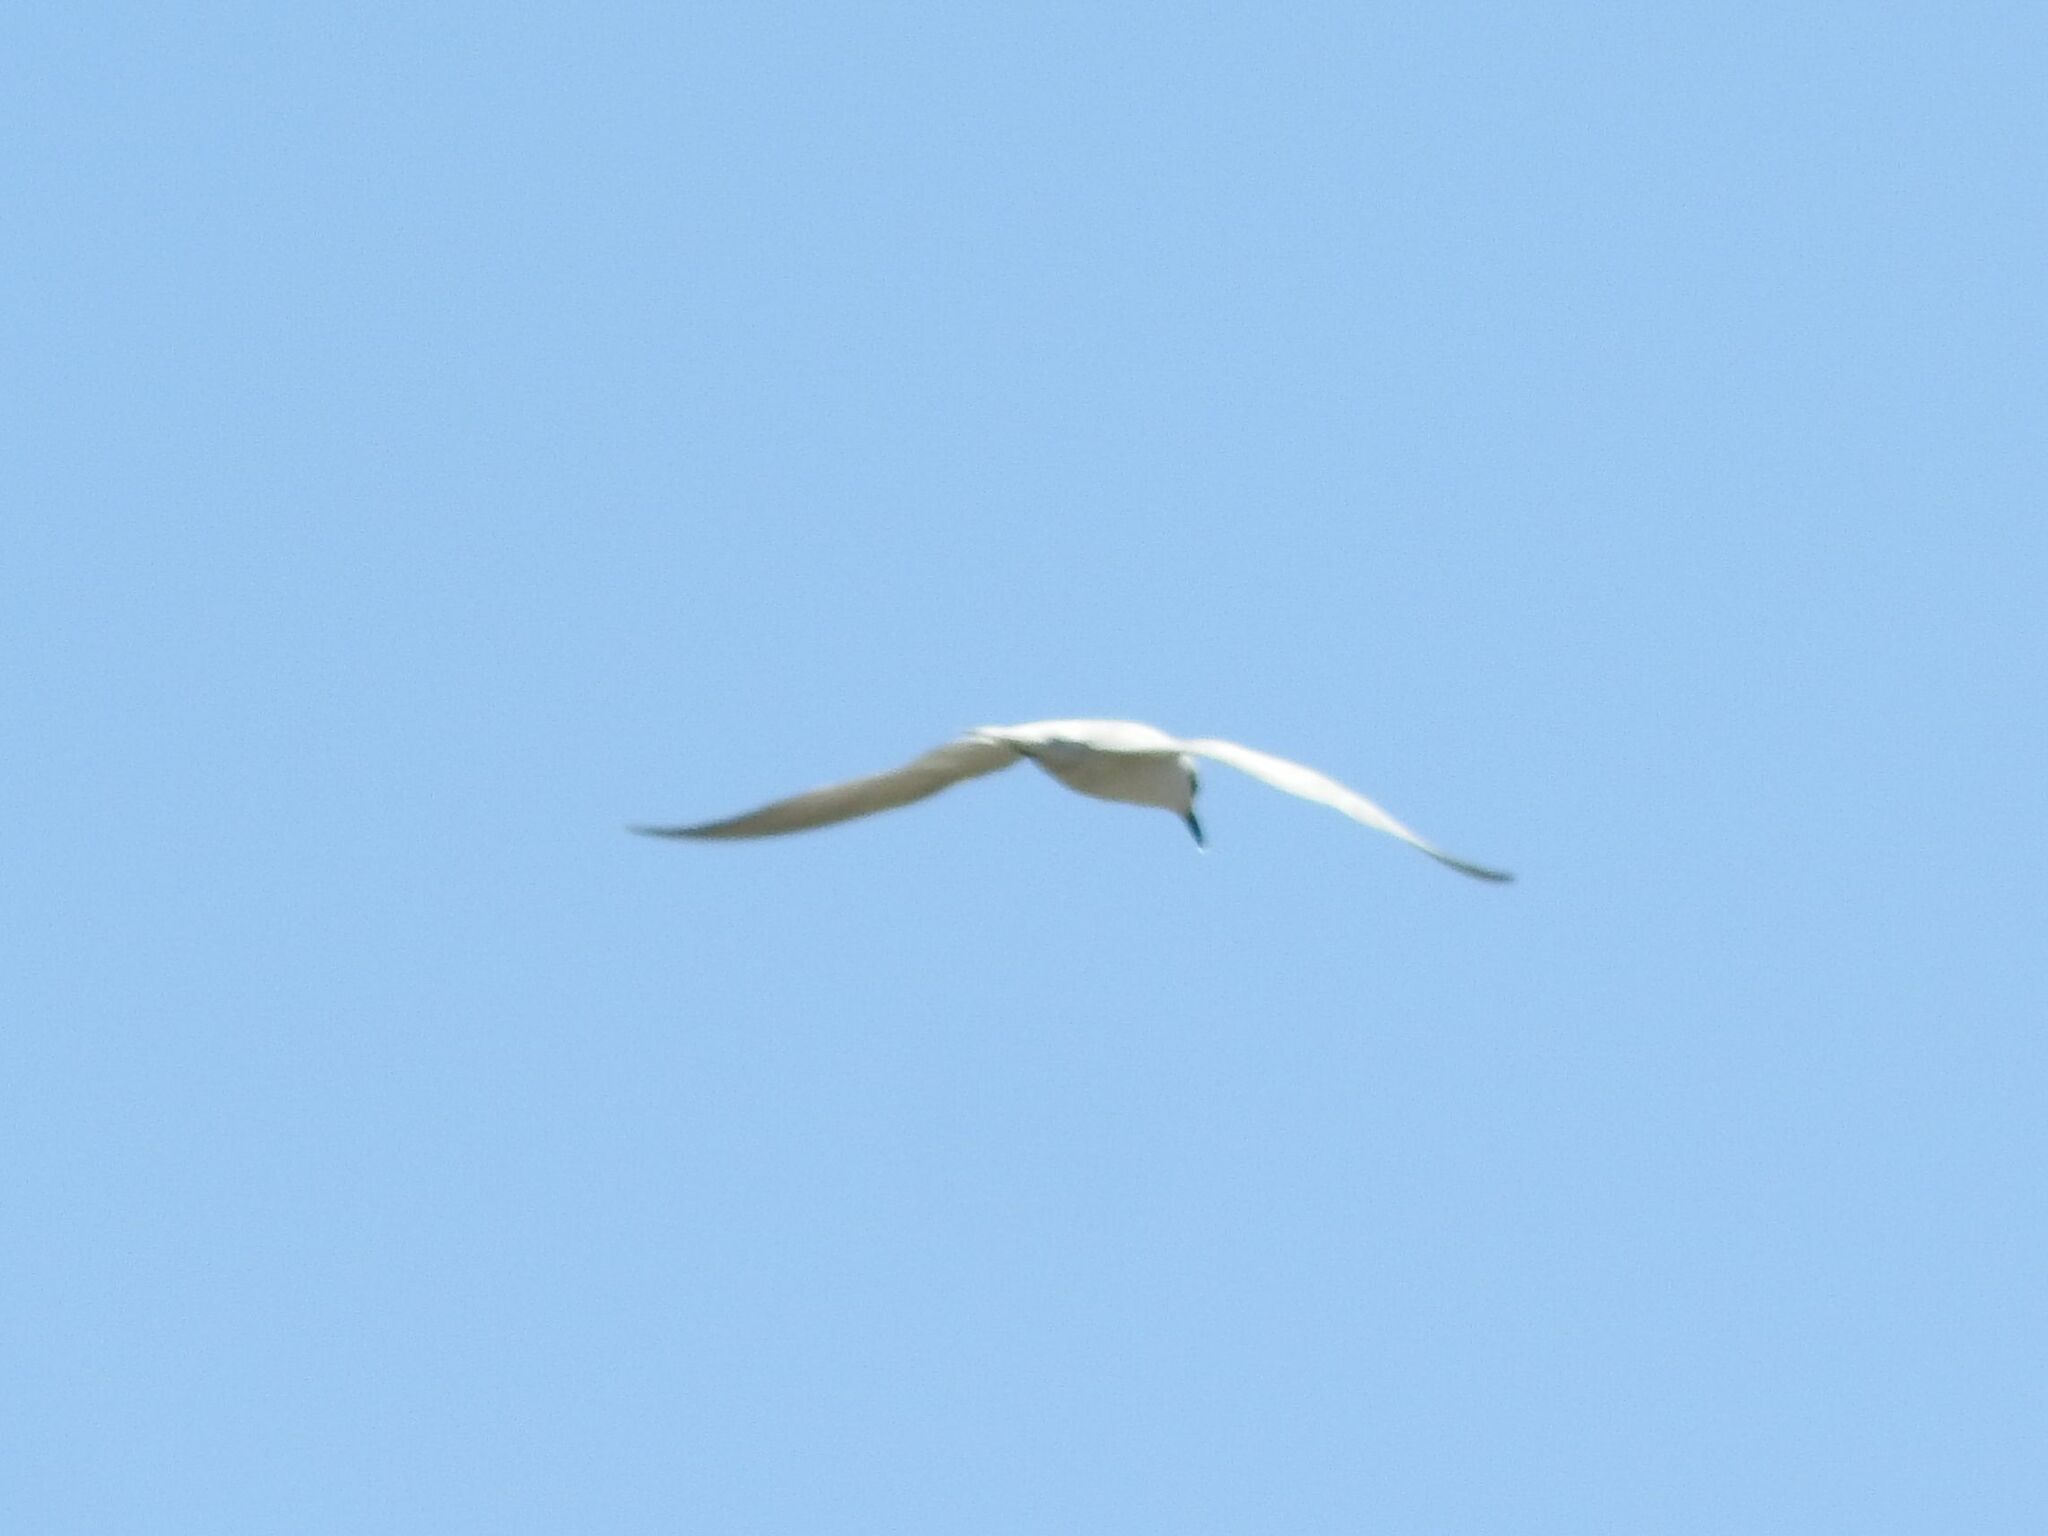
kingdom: Animalia
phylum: Chordata
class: Aves
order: Charadriiformes
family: Laridae
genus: Sterna
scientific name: Sterna trudeaui
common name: Snowy-crowned tern
